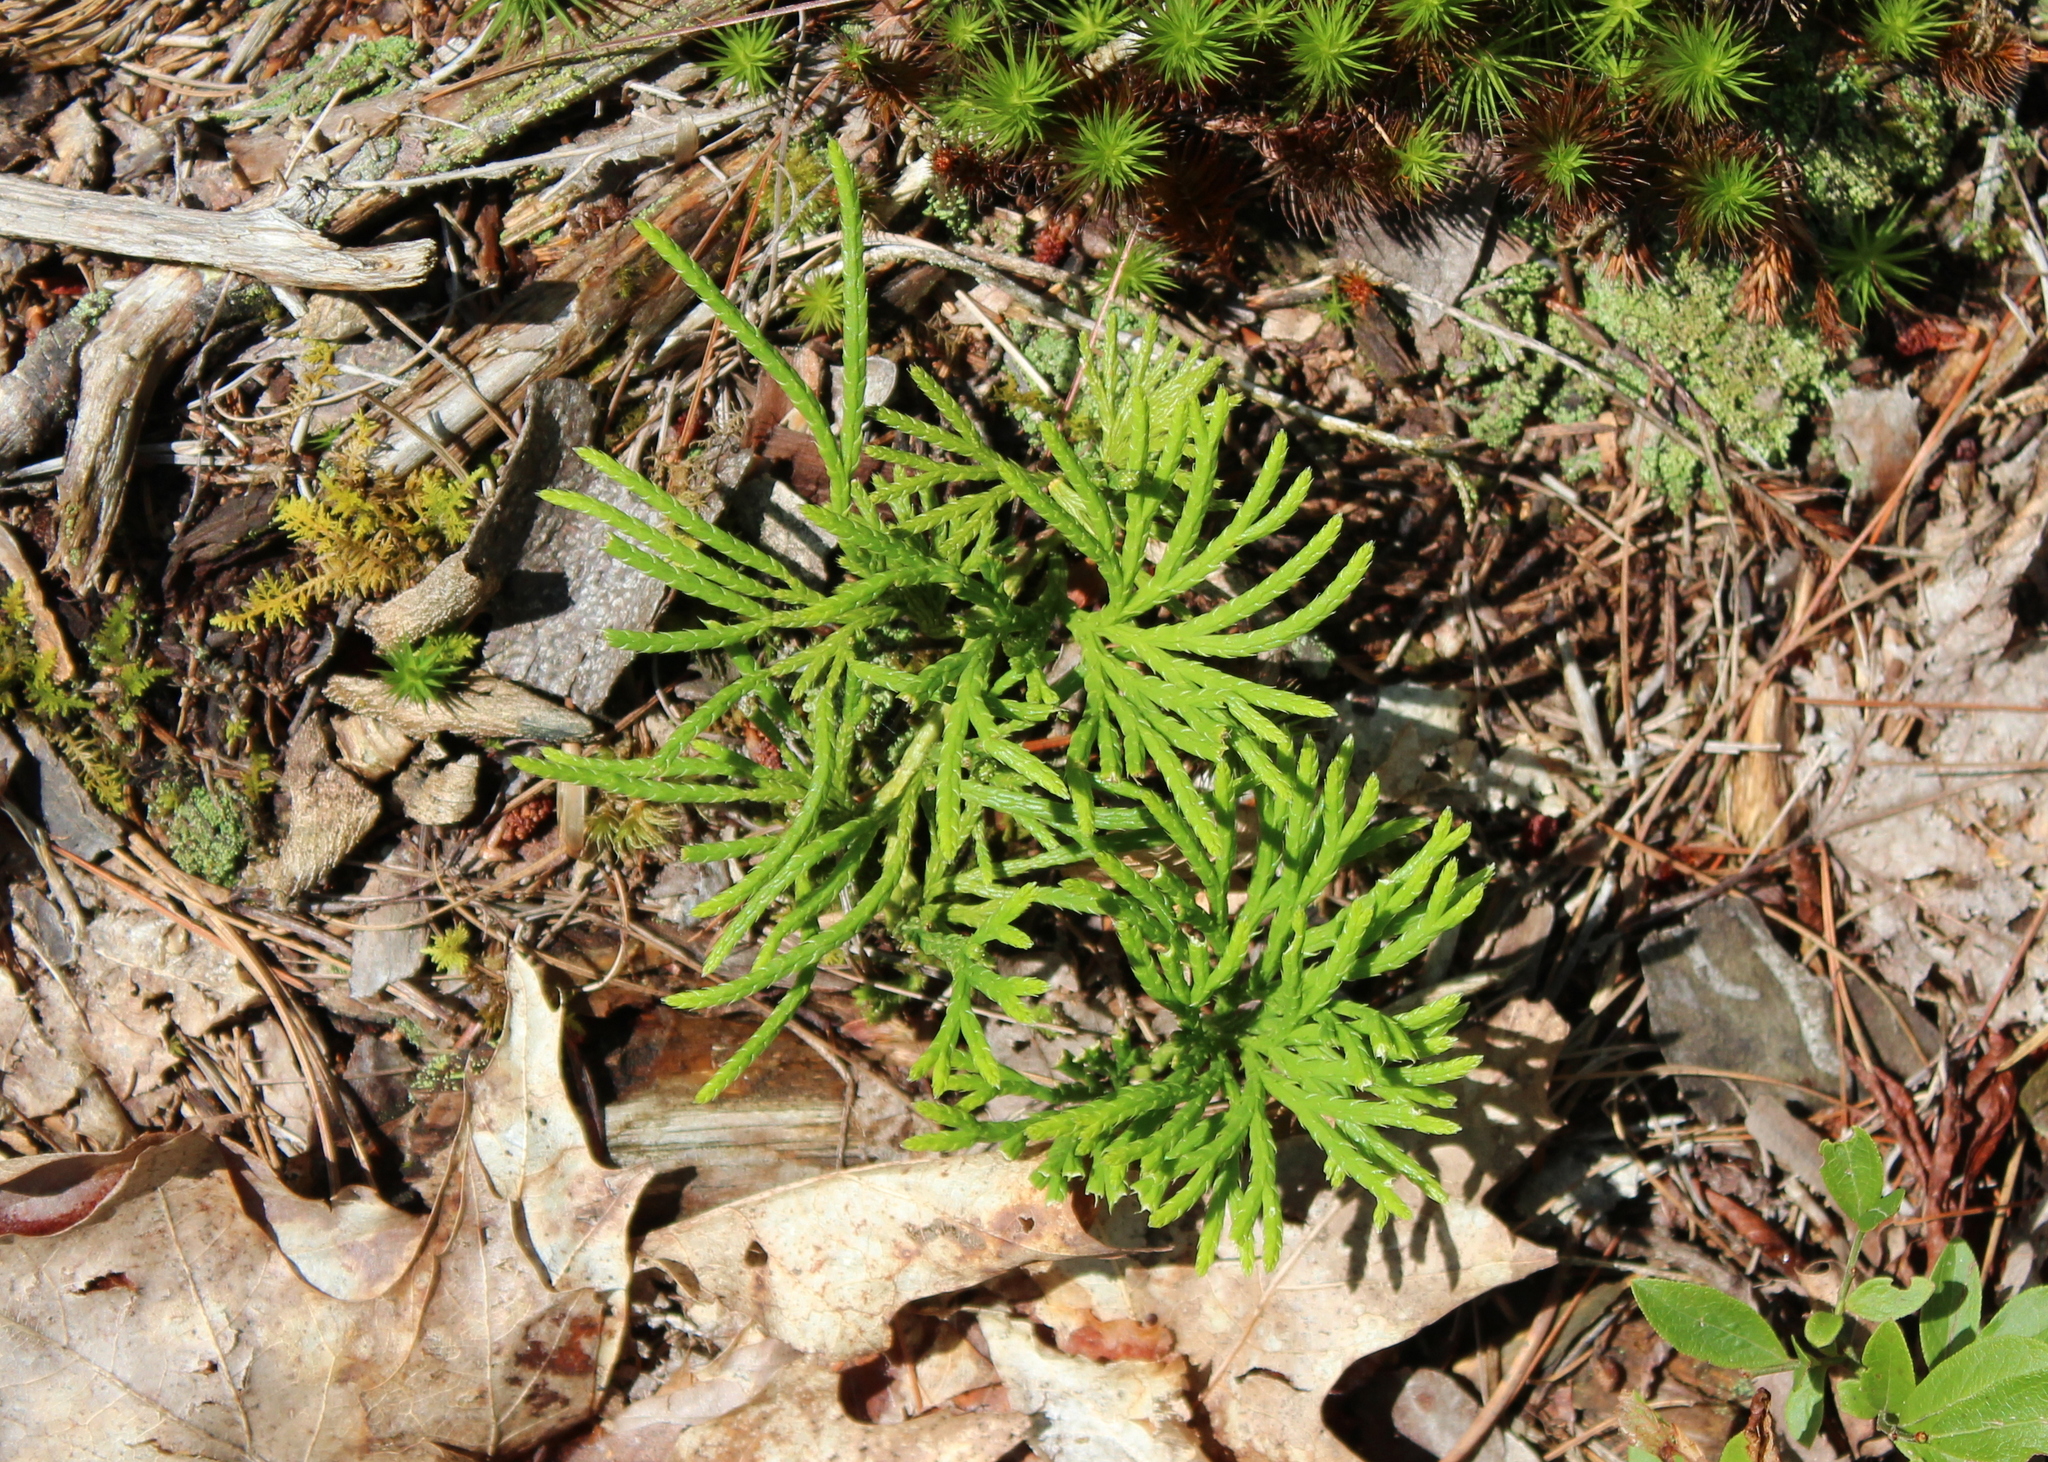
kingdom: Plantae
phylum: Tracheophyta
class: Lycopodiopsida
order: Lycopodiales
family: Lycopodiaceae
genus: Diphasiastrum
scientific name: Diphasiastrum digitatum
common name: Southern running-pine
